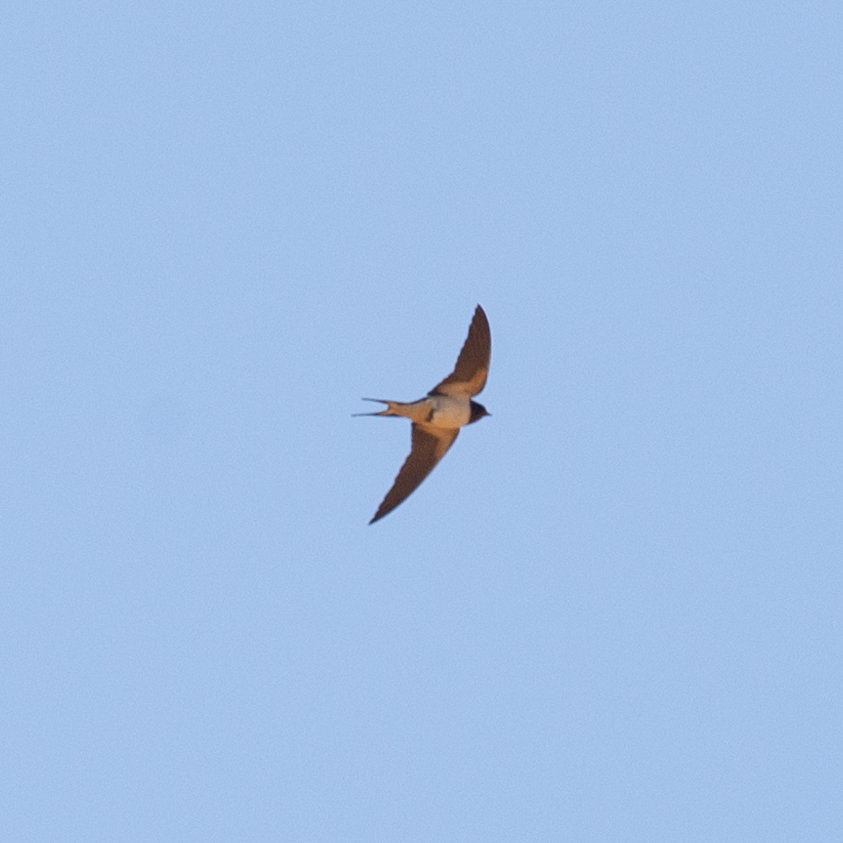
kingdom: Animalia
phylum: Chordata
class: Aves
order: Passeriformes
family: Hirundinidae
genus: Hirundo
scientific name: Hirundo rustica
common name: Barn swallow
